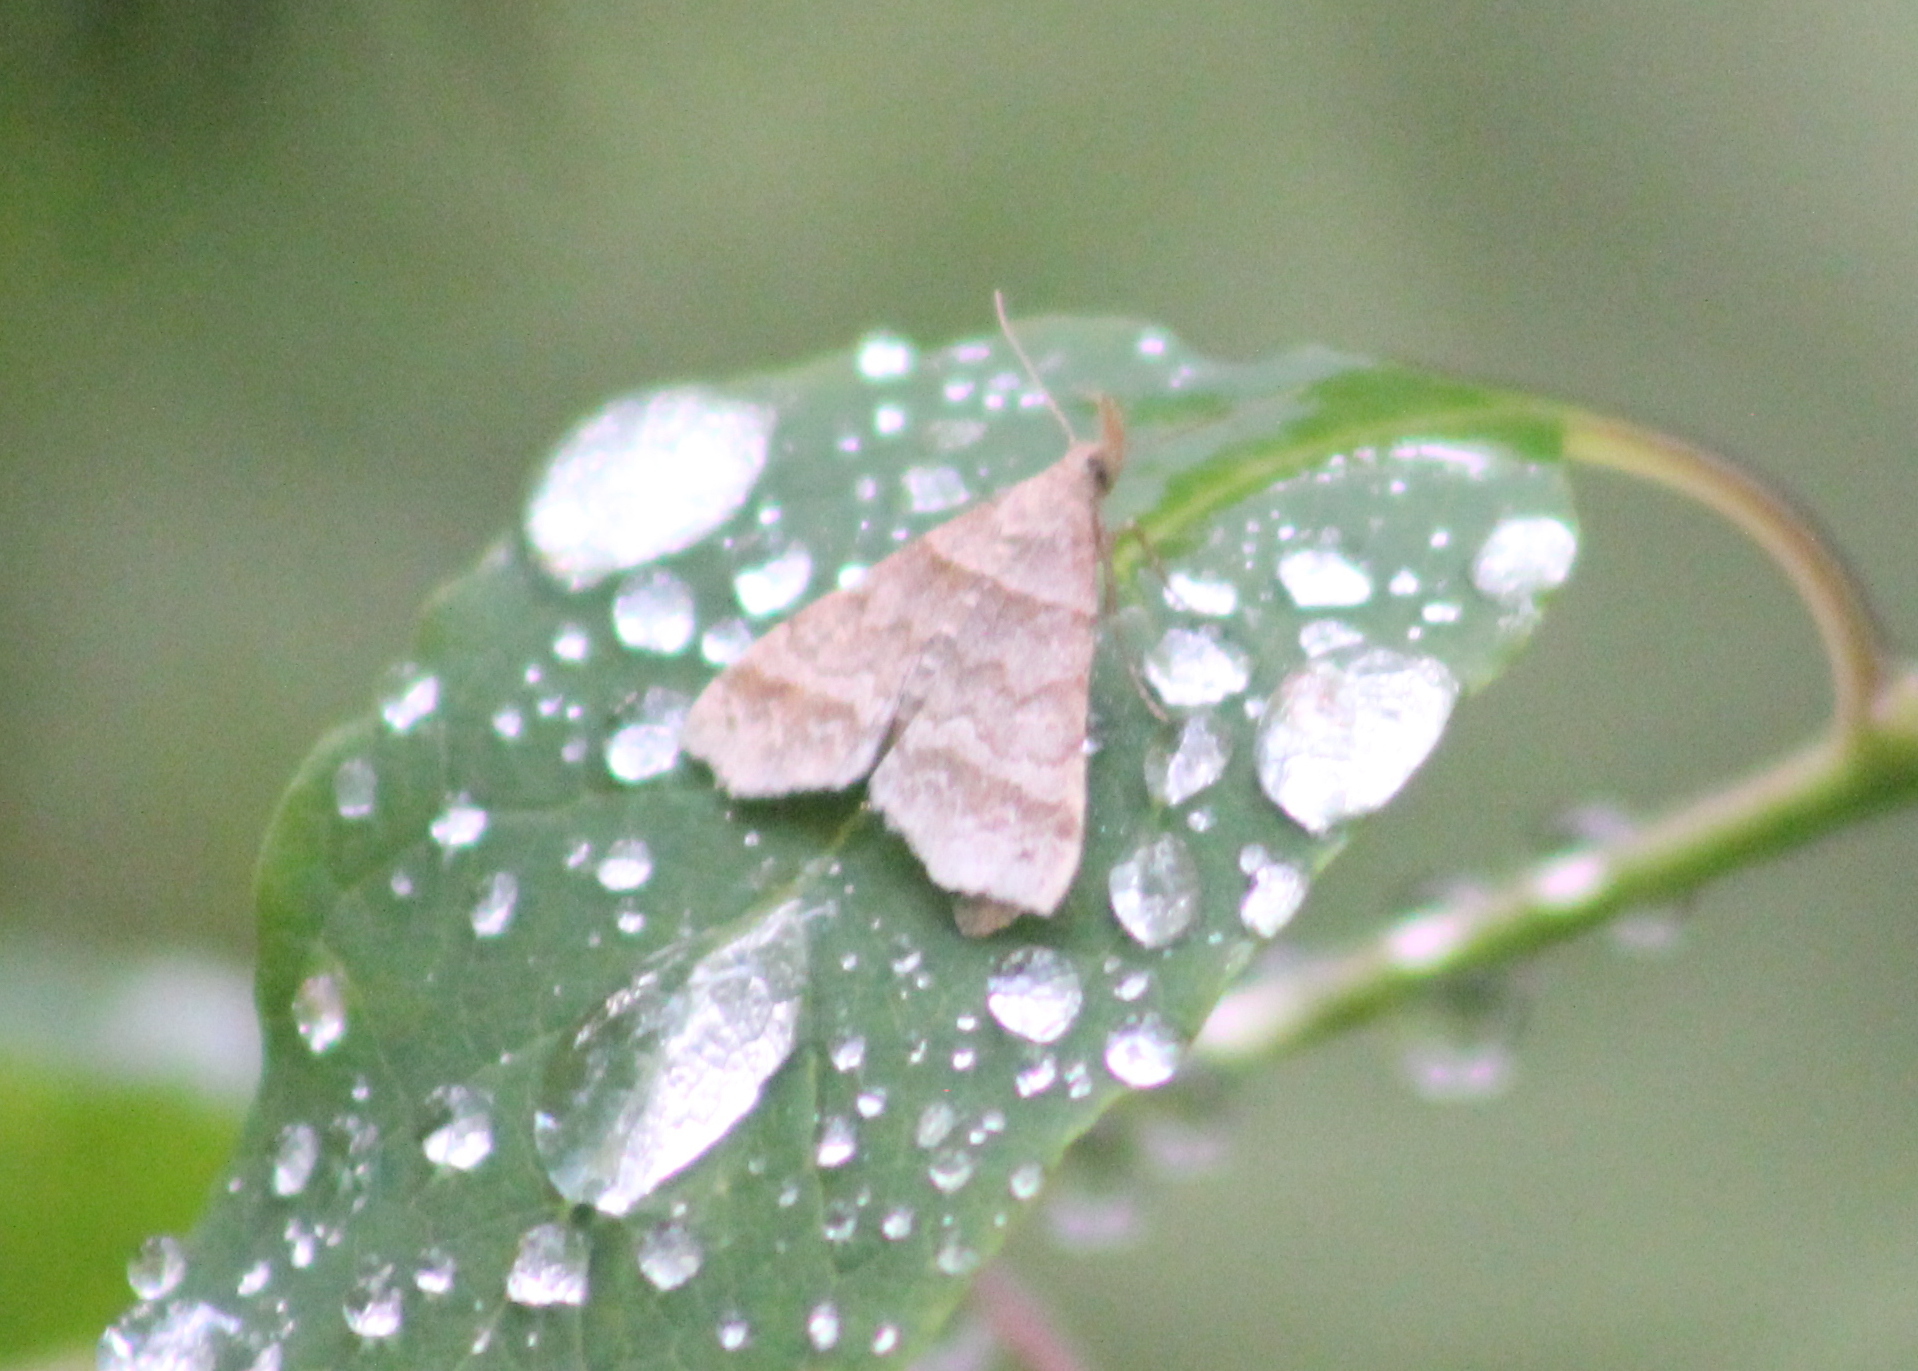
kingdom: Animalia
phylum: Arthropoda
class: Insecta
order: Lepidoptera
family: Erebidae
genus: Phaeolita
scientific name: Phaeolita pyramusalis
